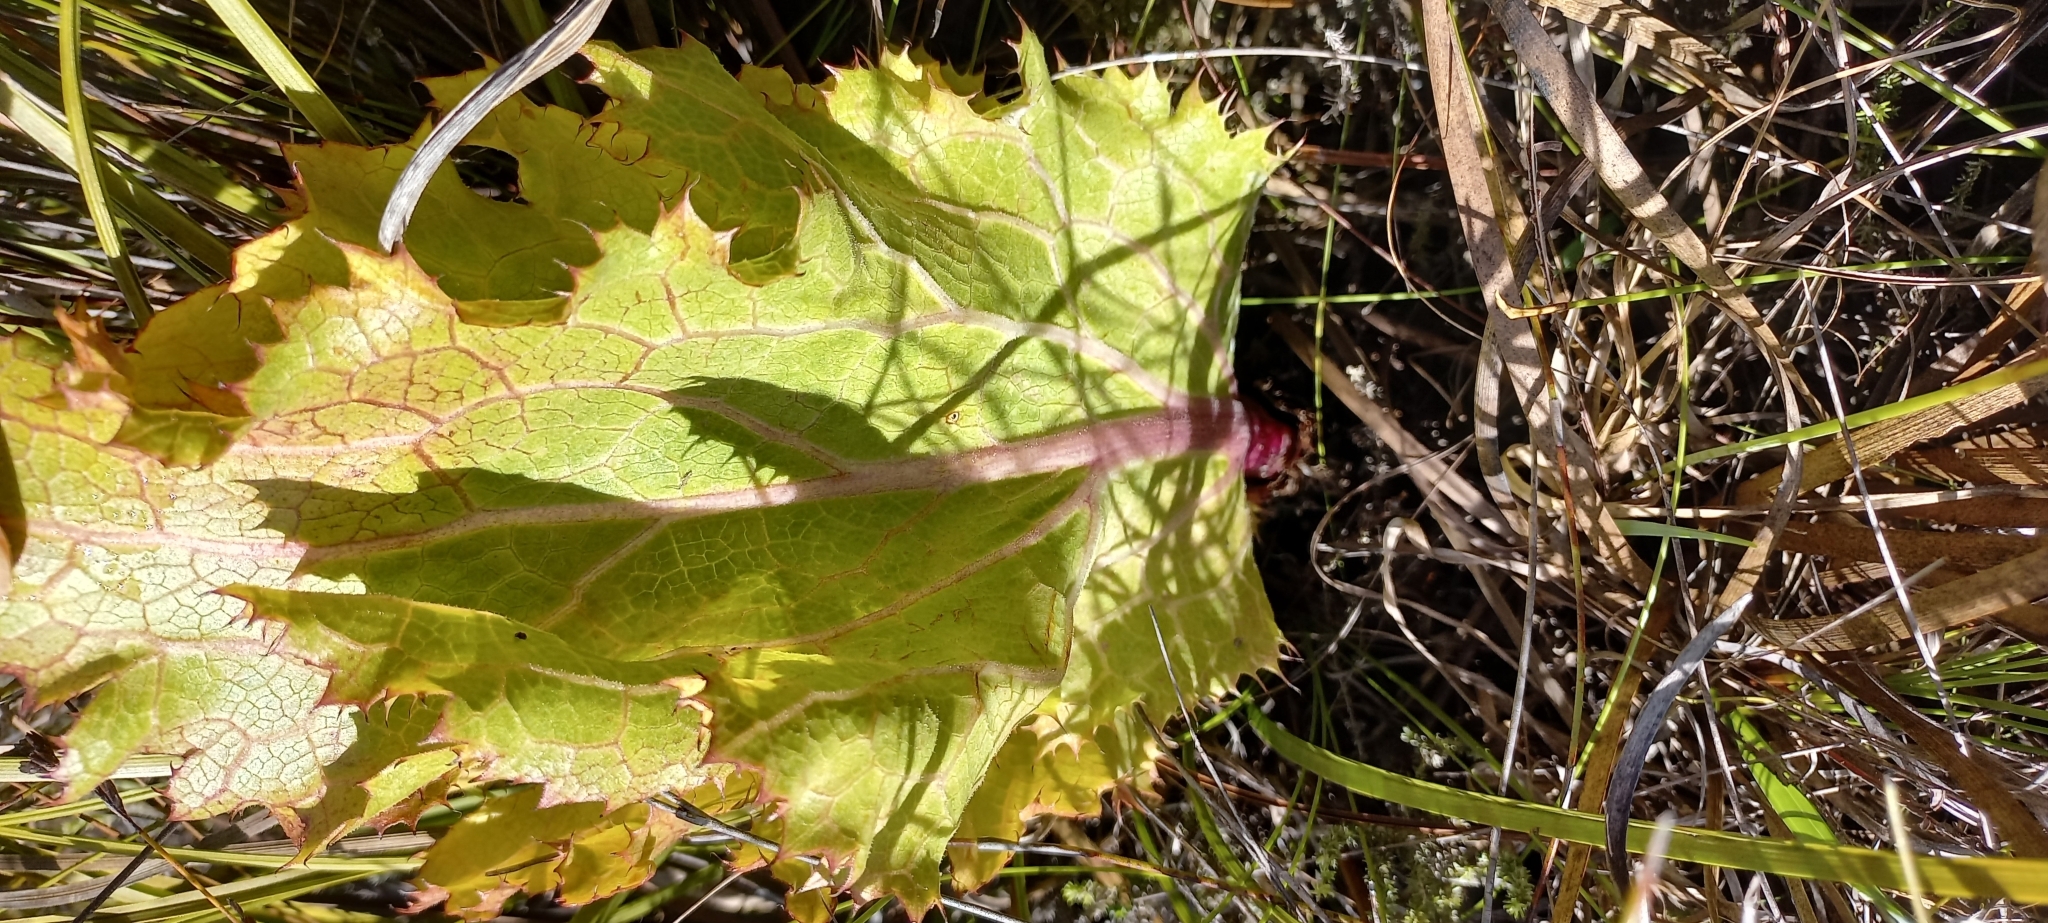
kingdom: Plantae
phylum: Tracheophyta
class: Magnoliopsida
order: Apiales
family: Apiaceae
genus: Lichtensteinia
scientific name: Lichtensteinia lacera
